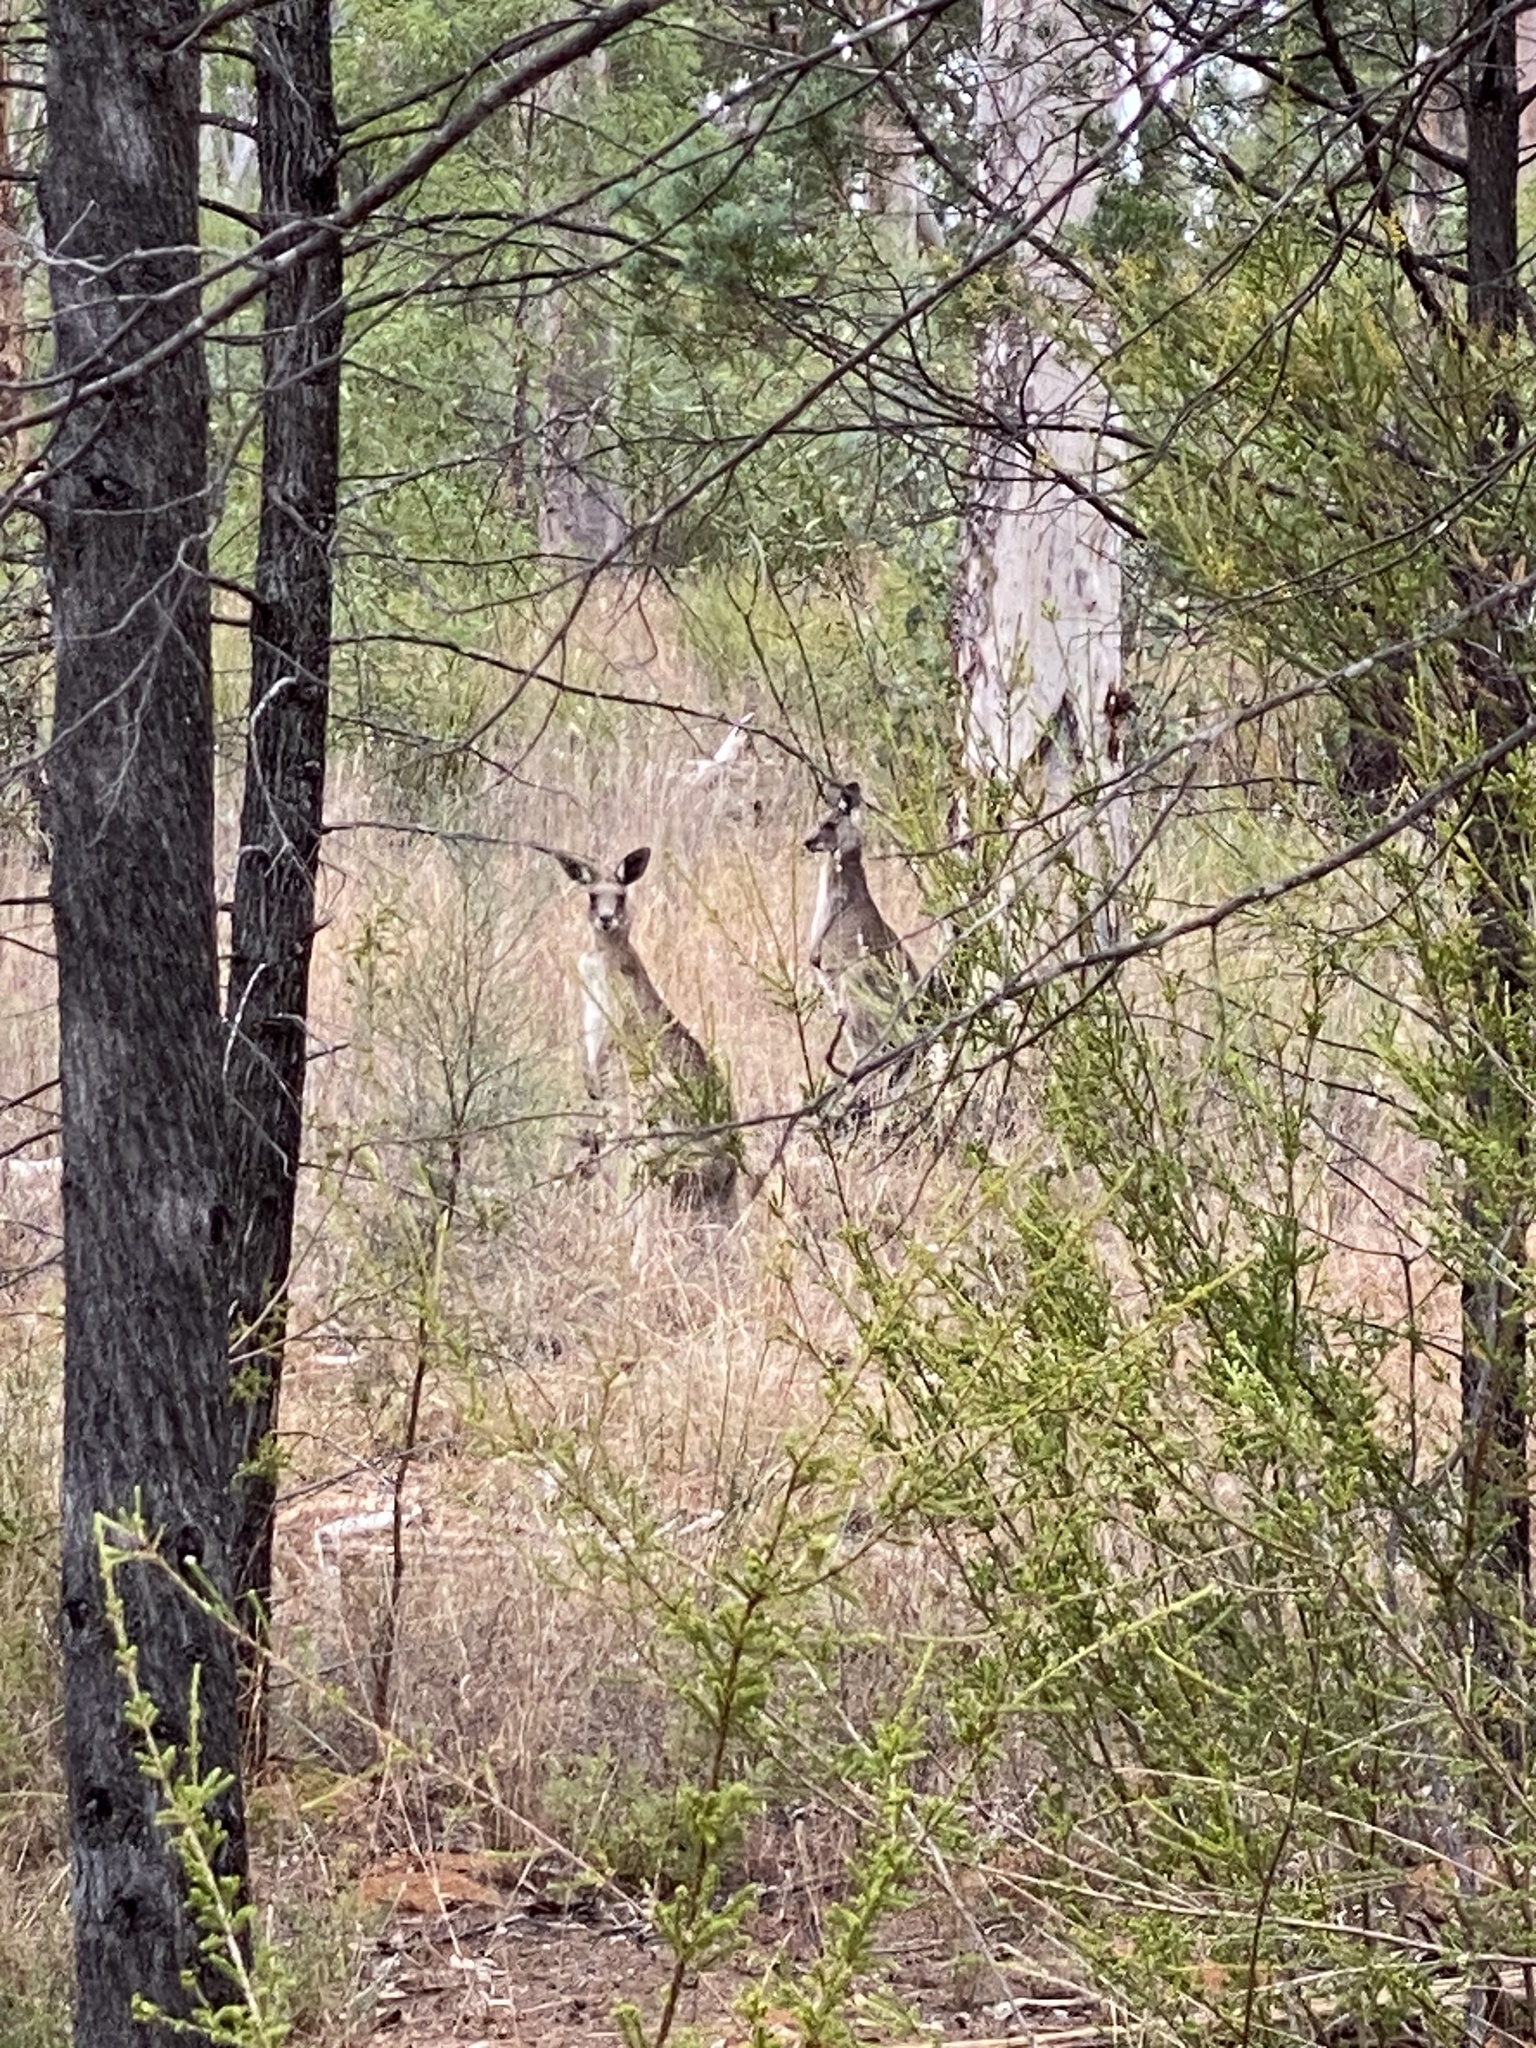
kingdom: Animalia
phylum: Chordata
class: Mammalia
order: Diprotodontia
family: Macropodidae
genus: Macropus
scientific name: Macropus giganteus
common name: Eastern grey kangaroo
